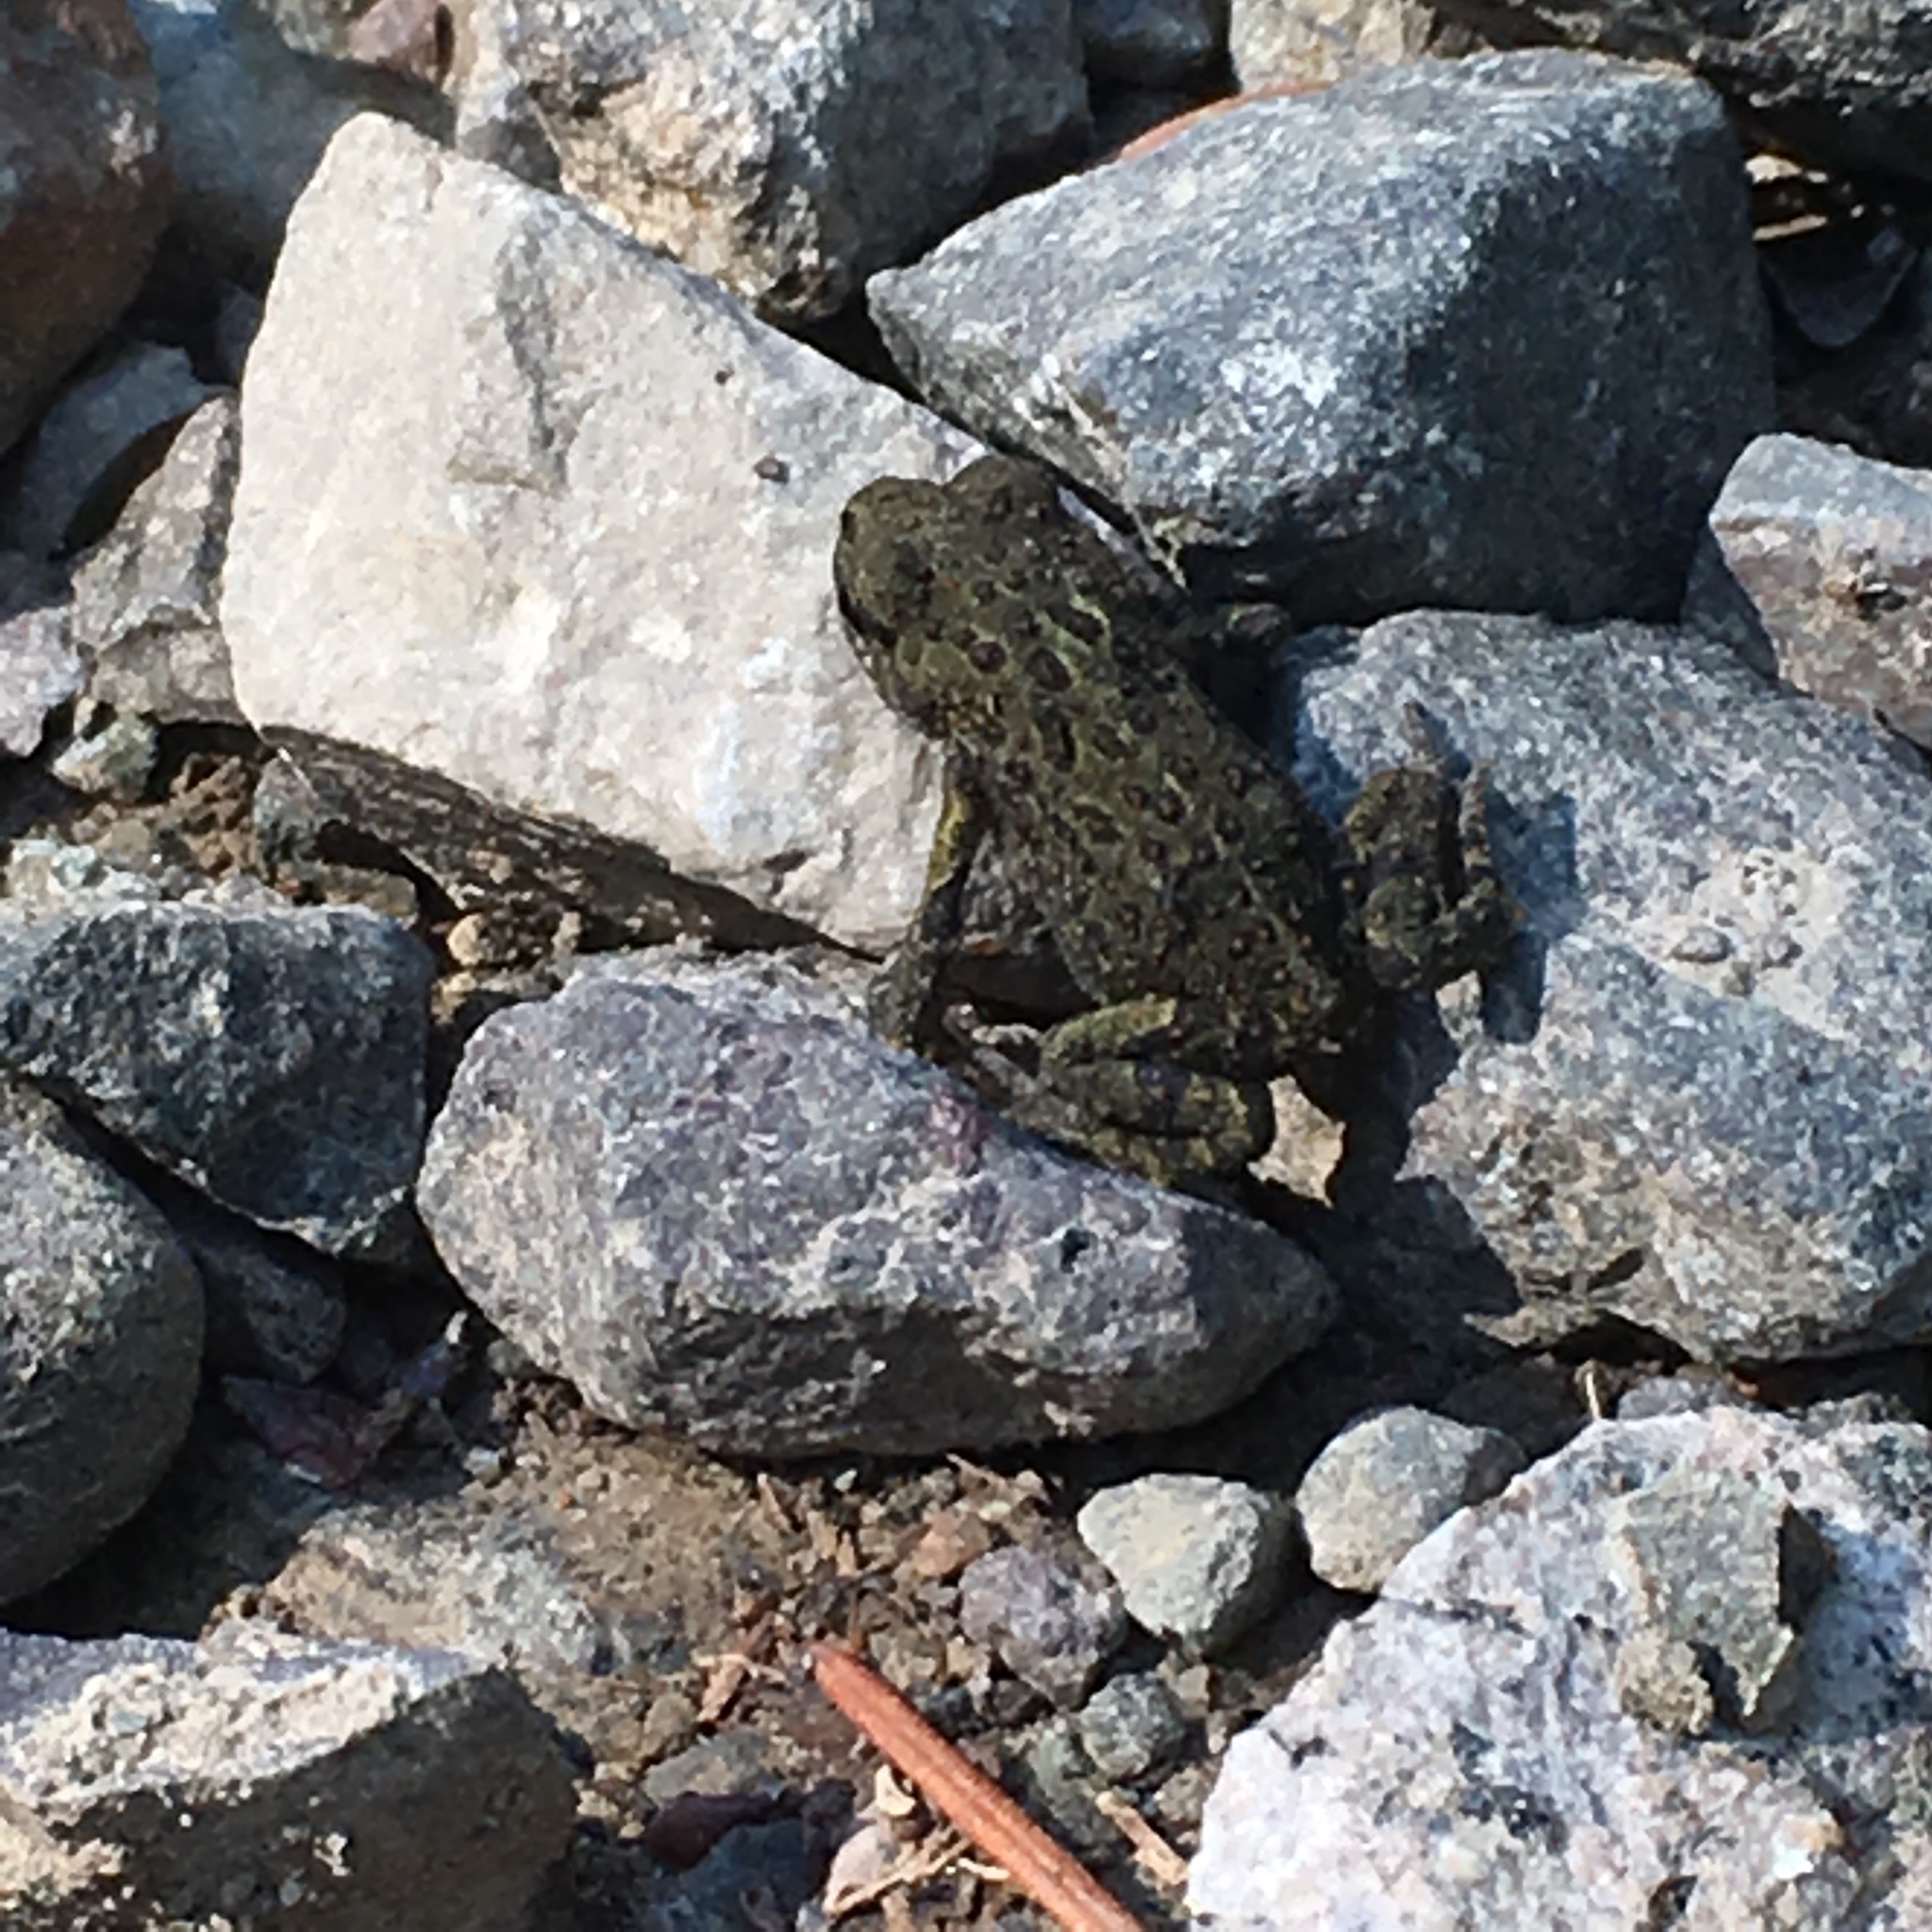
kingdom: Animalia
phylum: Chordata
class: Amphibia
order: Anura
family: Bufonidae
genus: Anaxyrus
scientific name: Anaxyrus boreas
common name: Western toad
